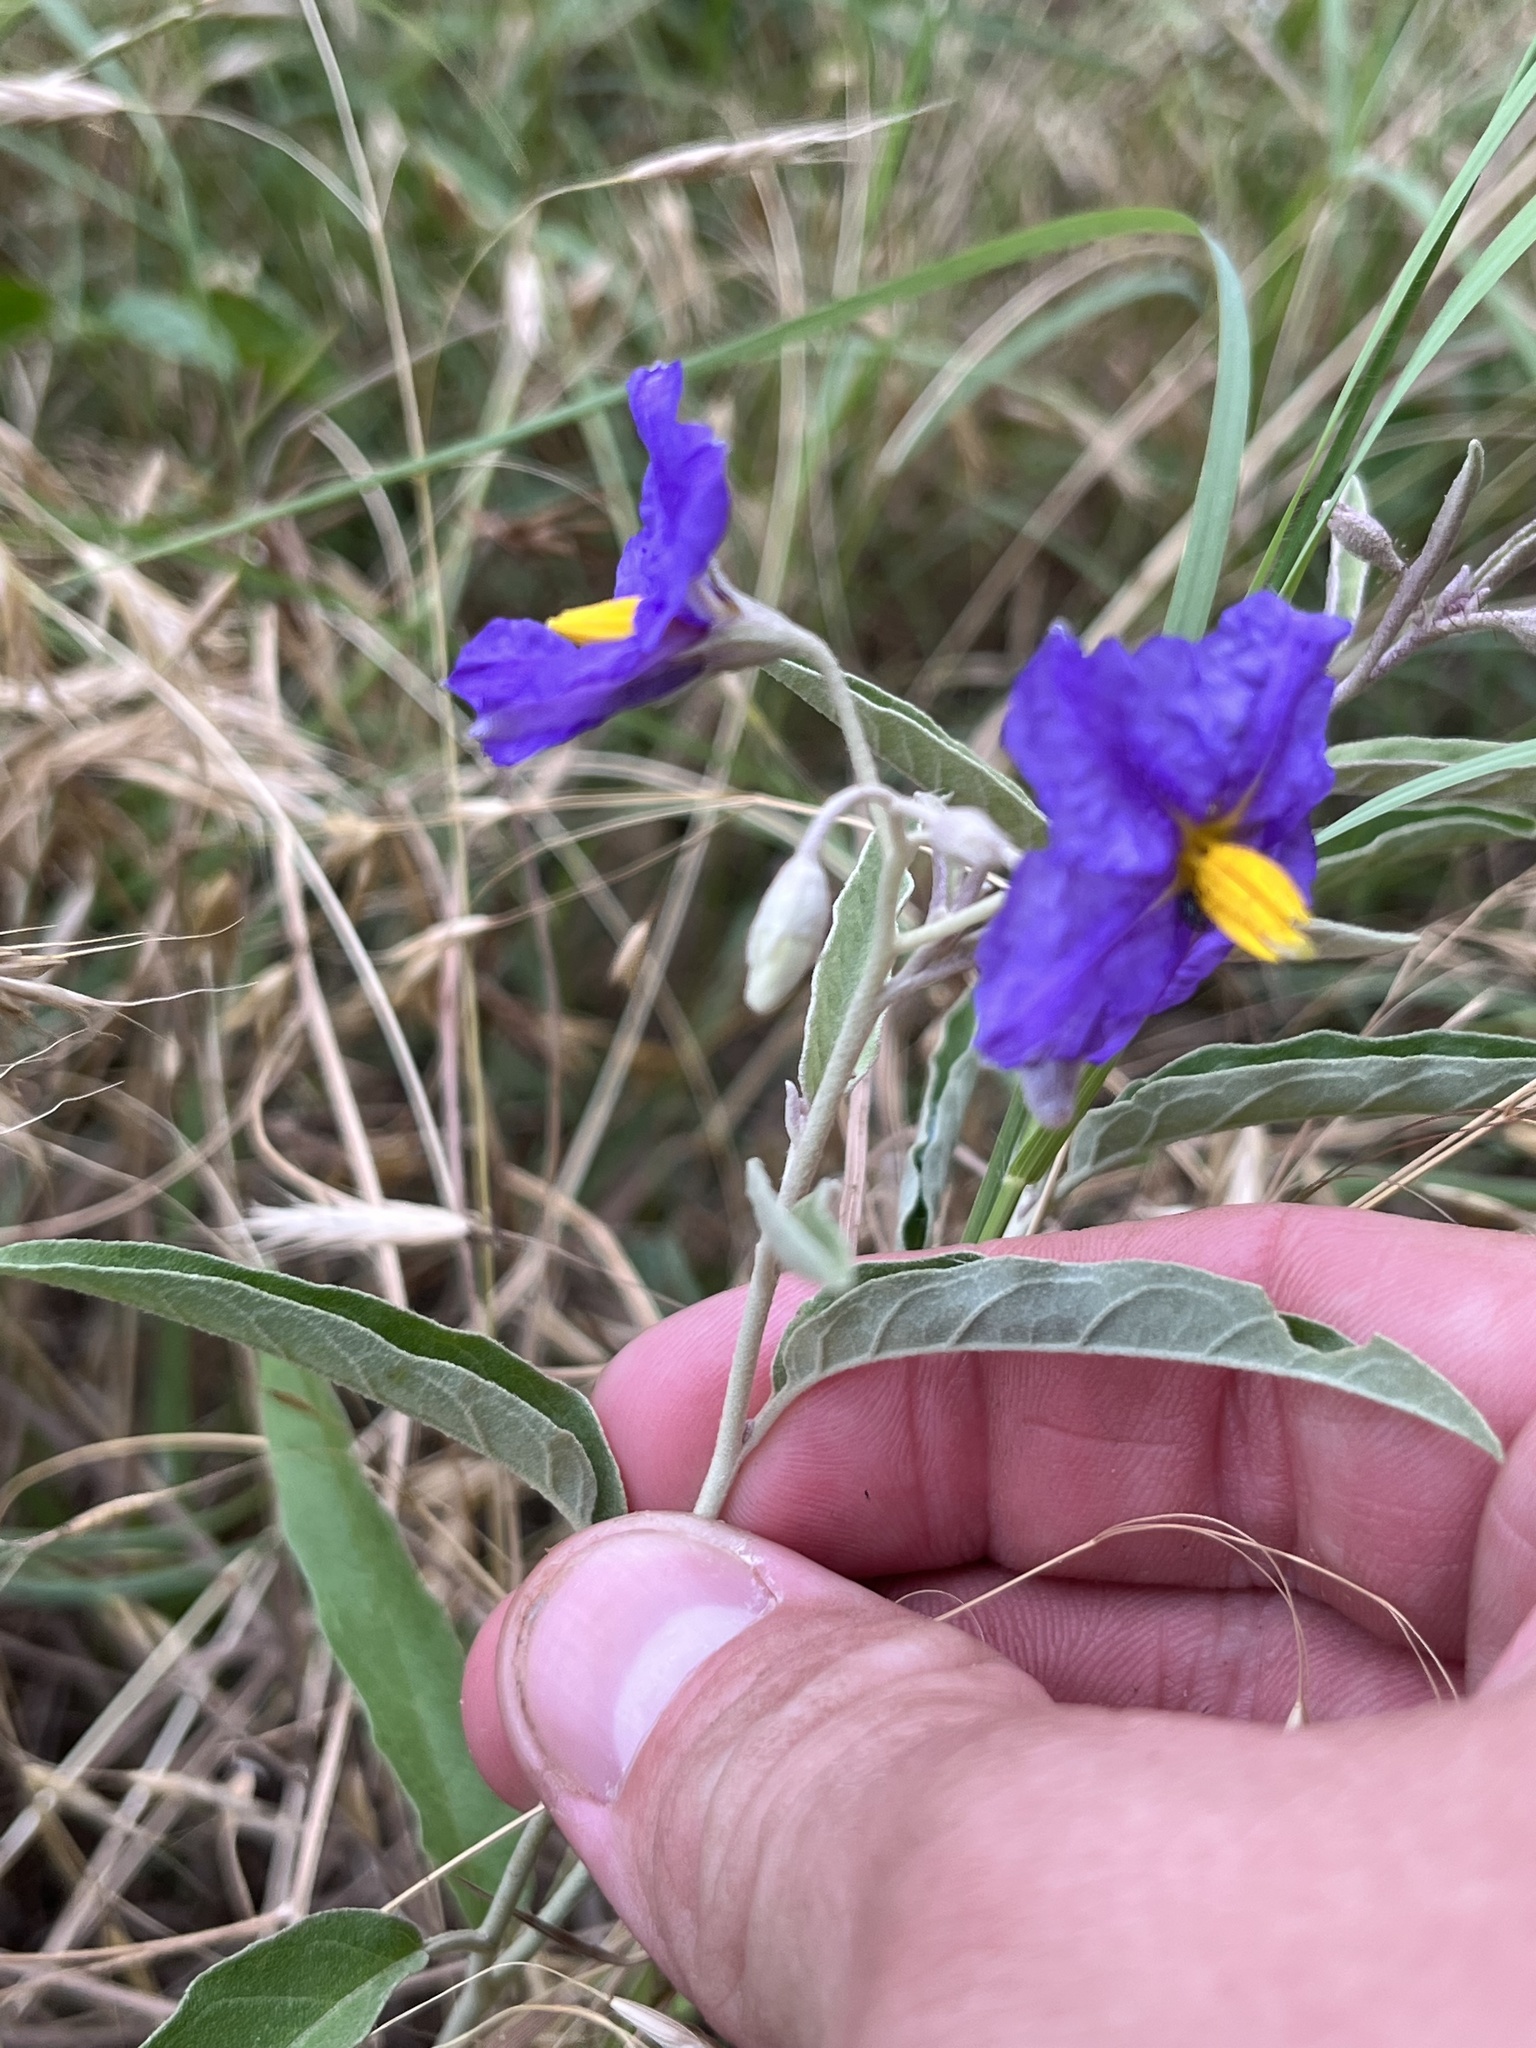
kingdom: Plantae
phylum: Tracheophyta
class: Magnoliopsida
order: Solanales
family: Solanaceae
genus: Solanum
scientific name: Solanum elaeagnifolium
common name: Silverleaf nightshade
